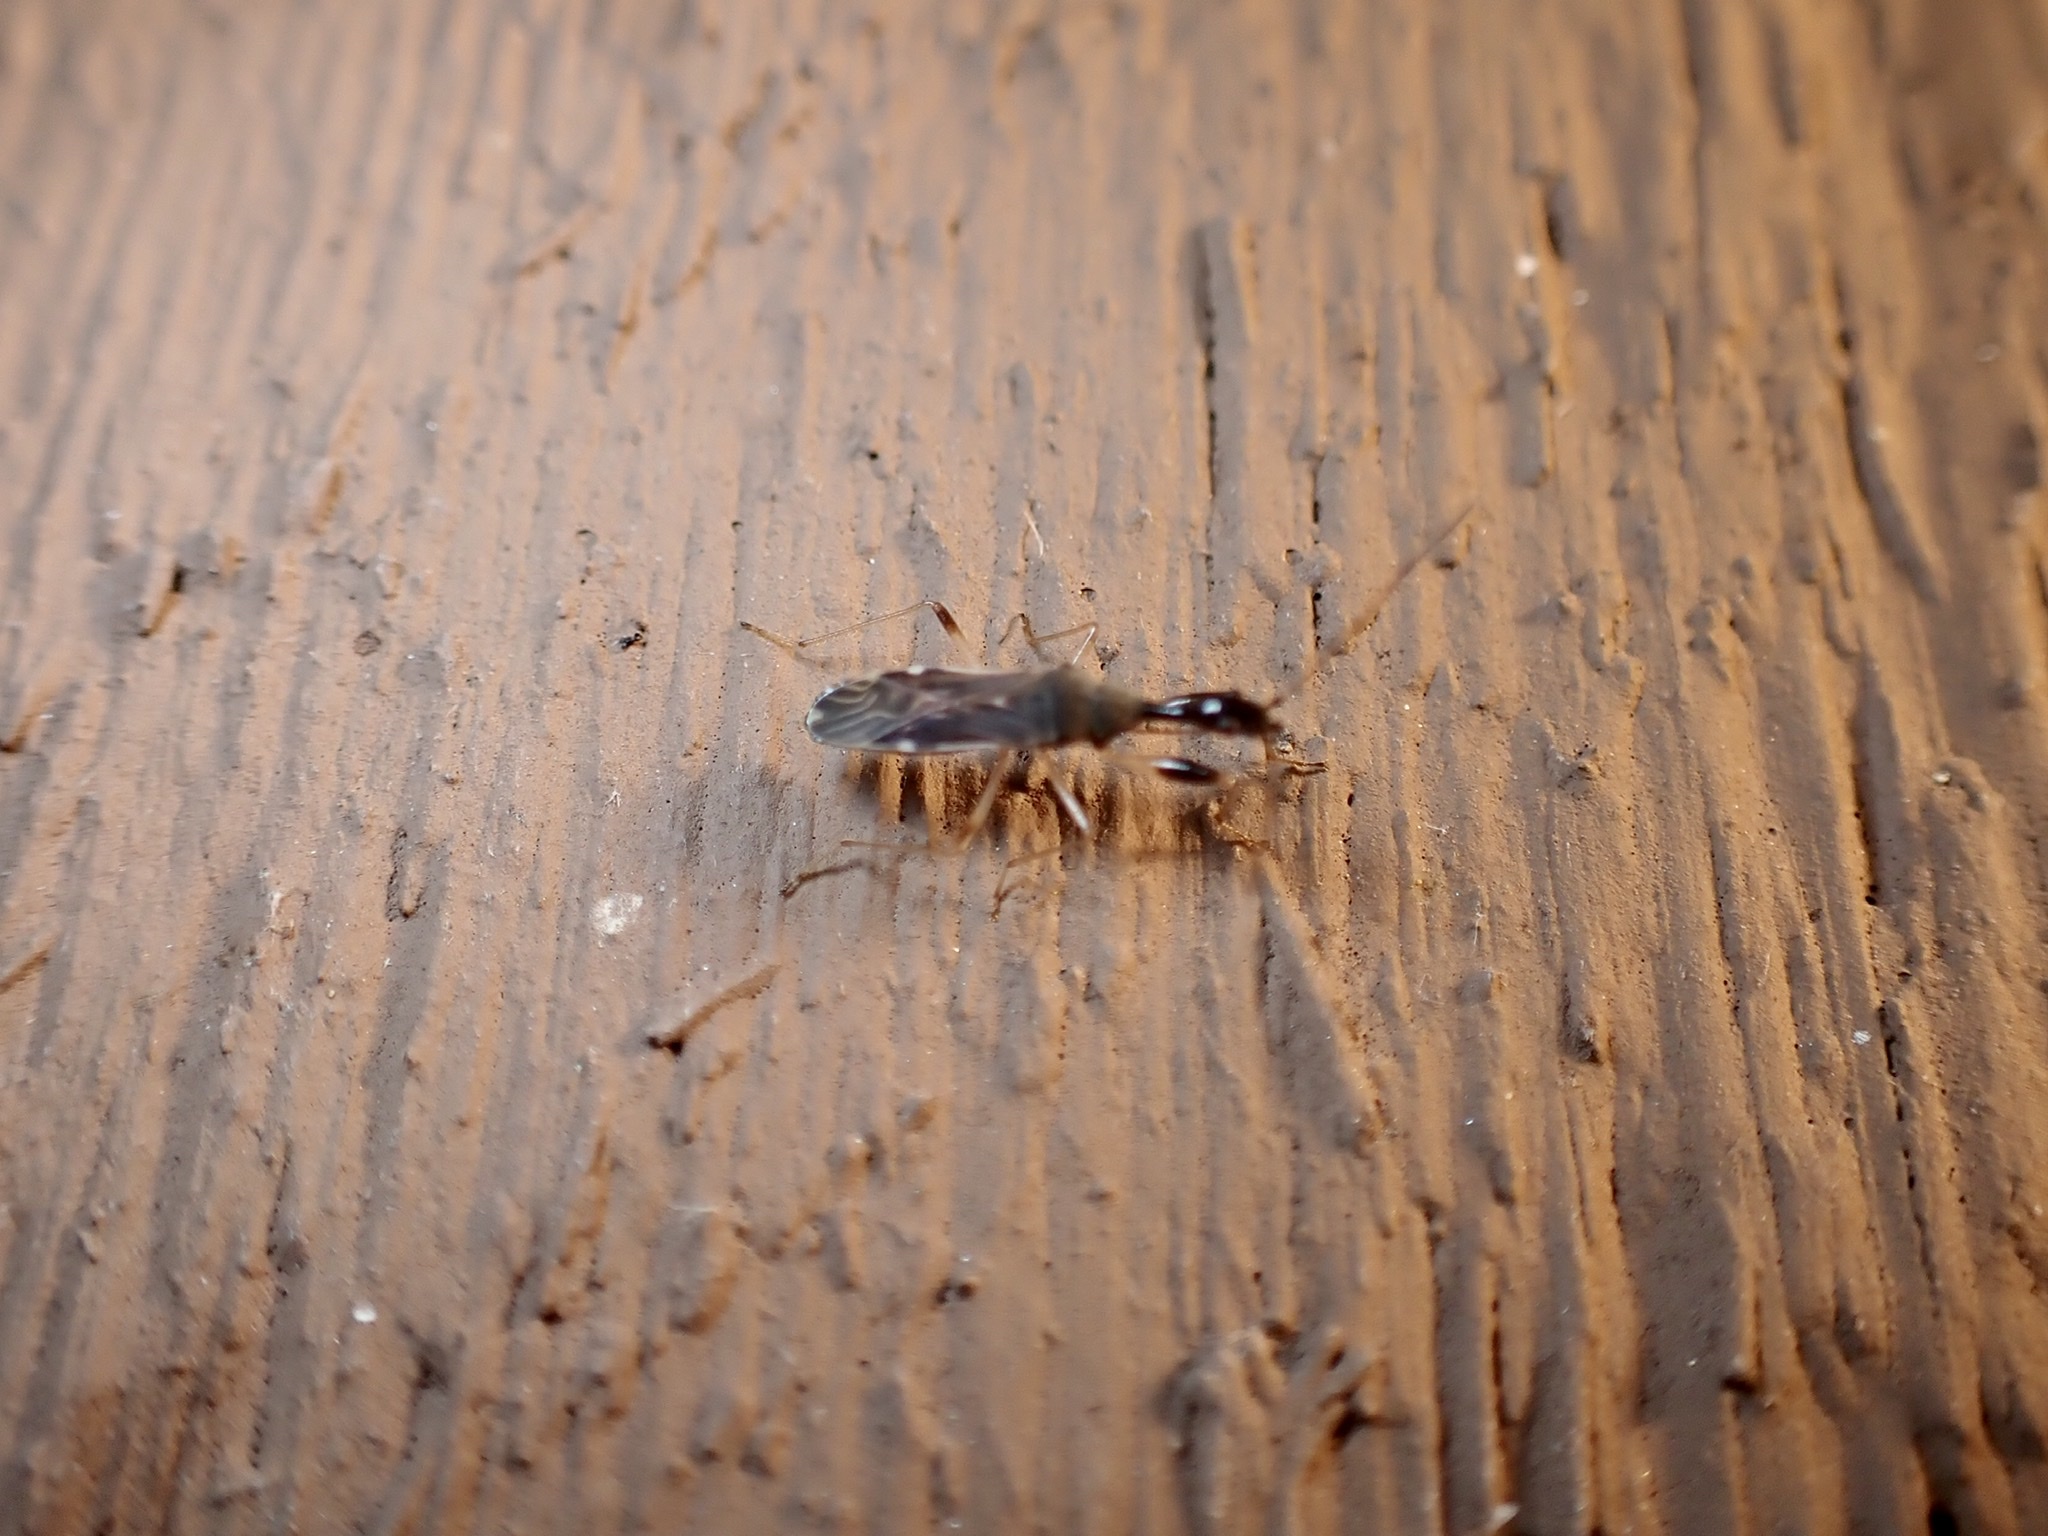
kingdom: Animalia
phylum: Arthropoda
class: Insecta
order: Hemiptera
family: Rhyparochromidae
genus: Myodocha
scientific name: Myodocha serripes
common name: Long-necked seed bug
